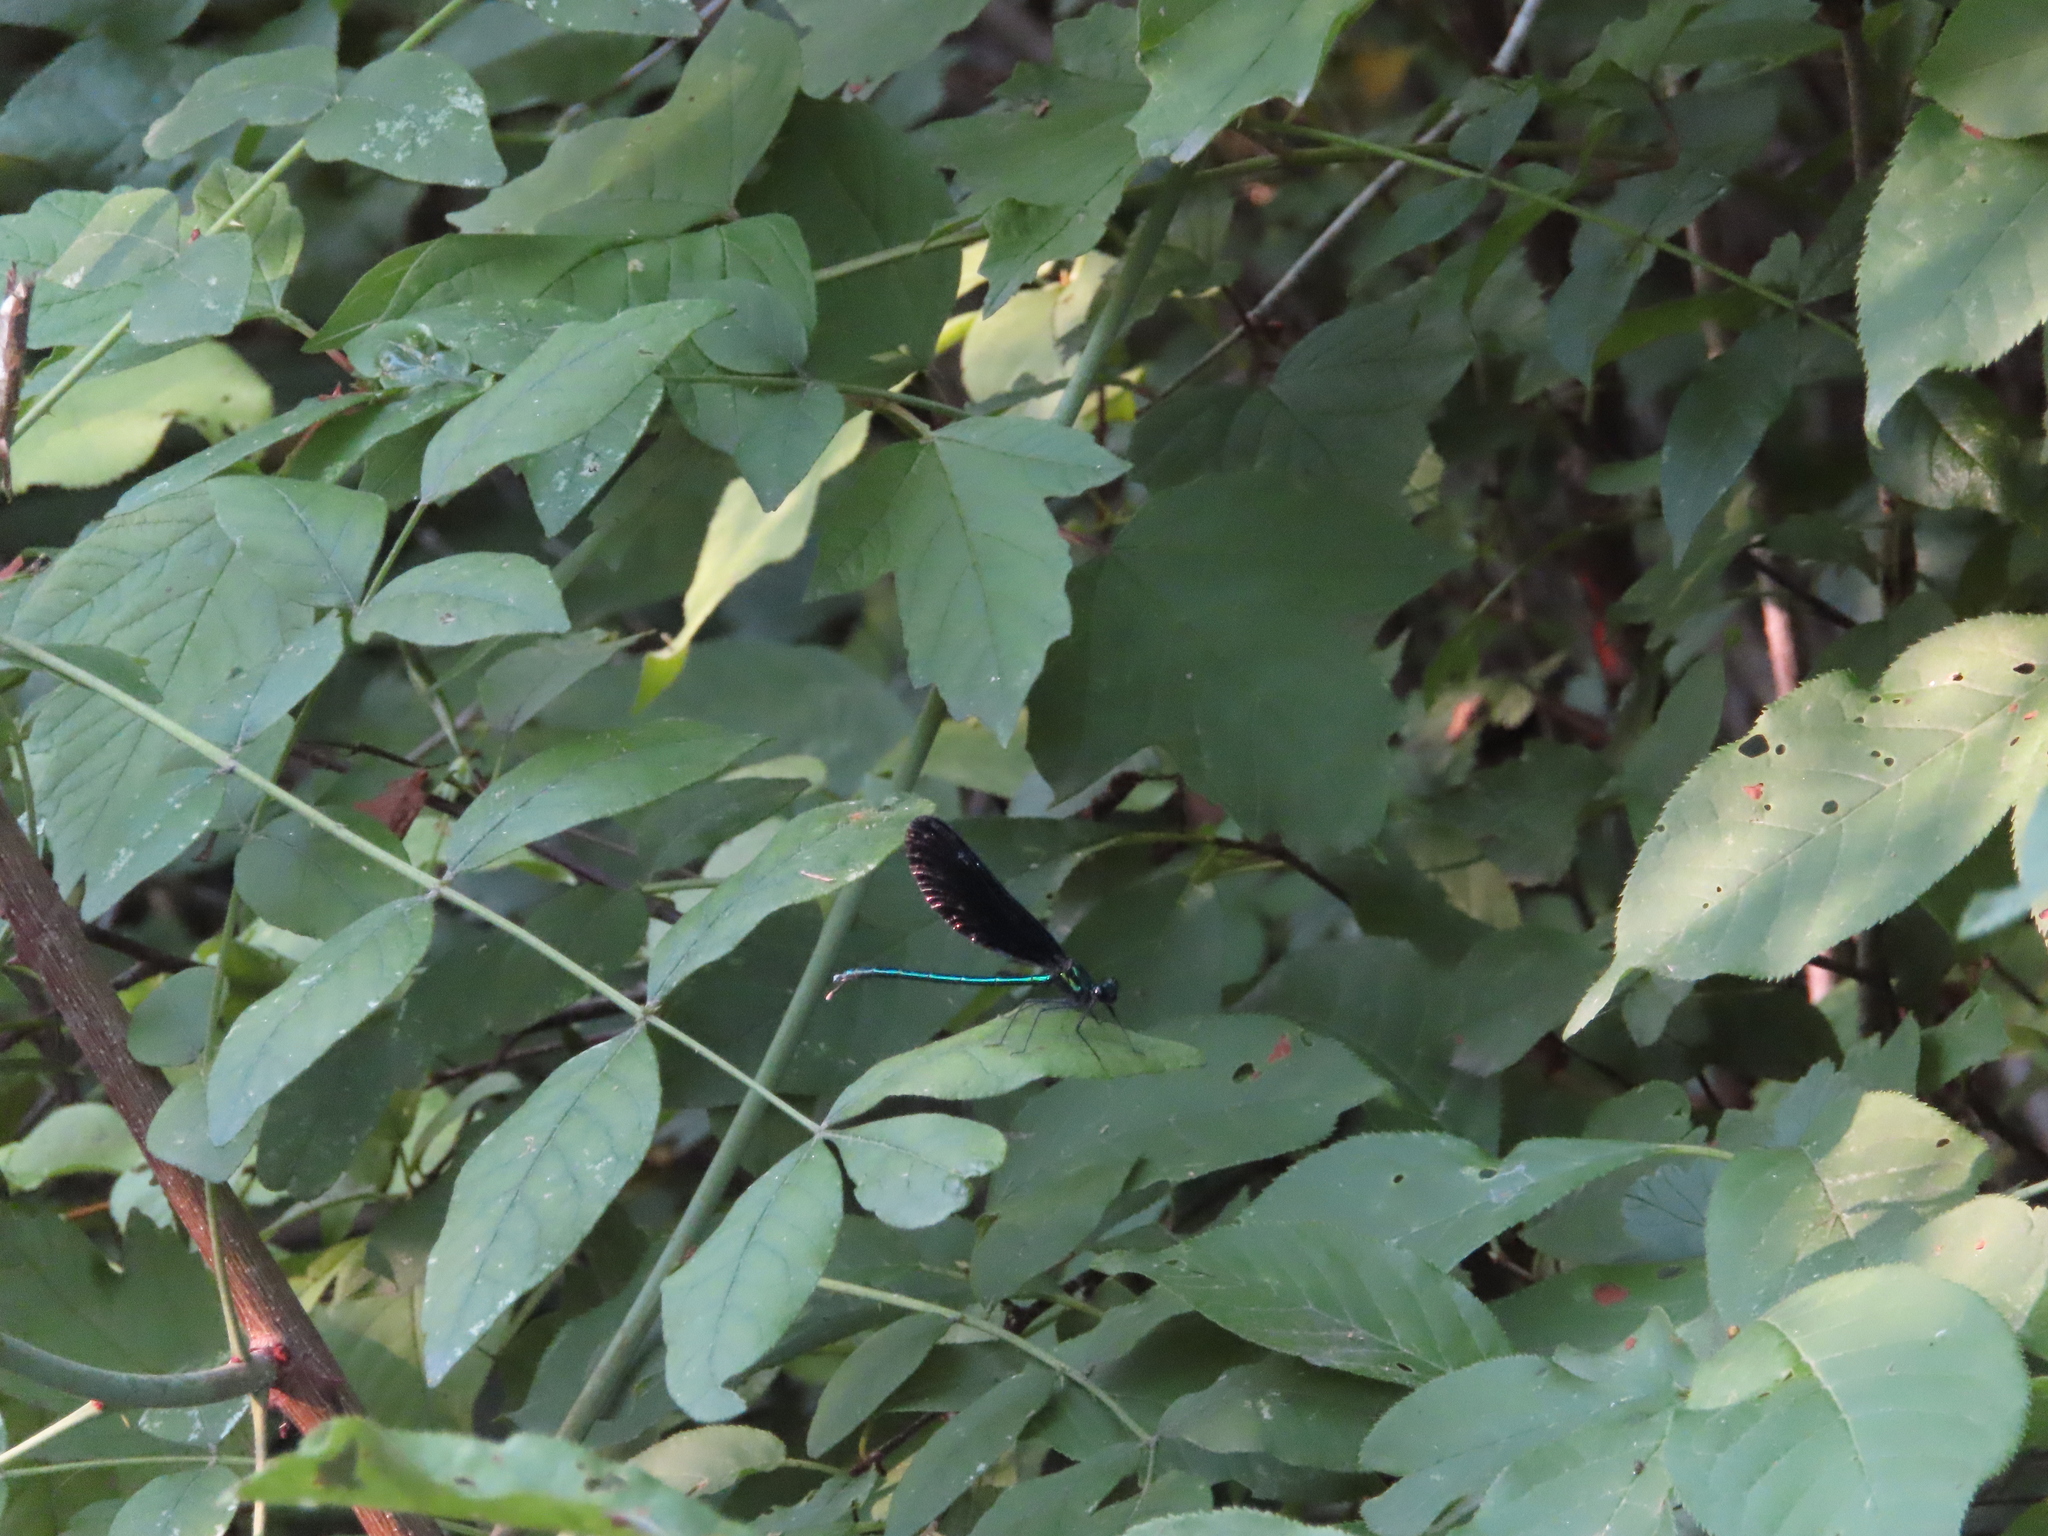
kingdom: Animalia
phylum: Arthropoda
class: Insecta
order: Odonata
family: Calopterygidae
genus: Calopteryx
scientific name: Calopteryx maculata
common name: Ebony jewelwing
